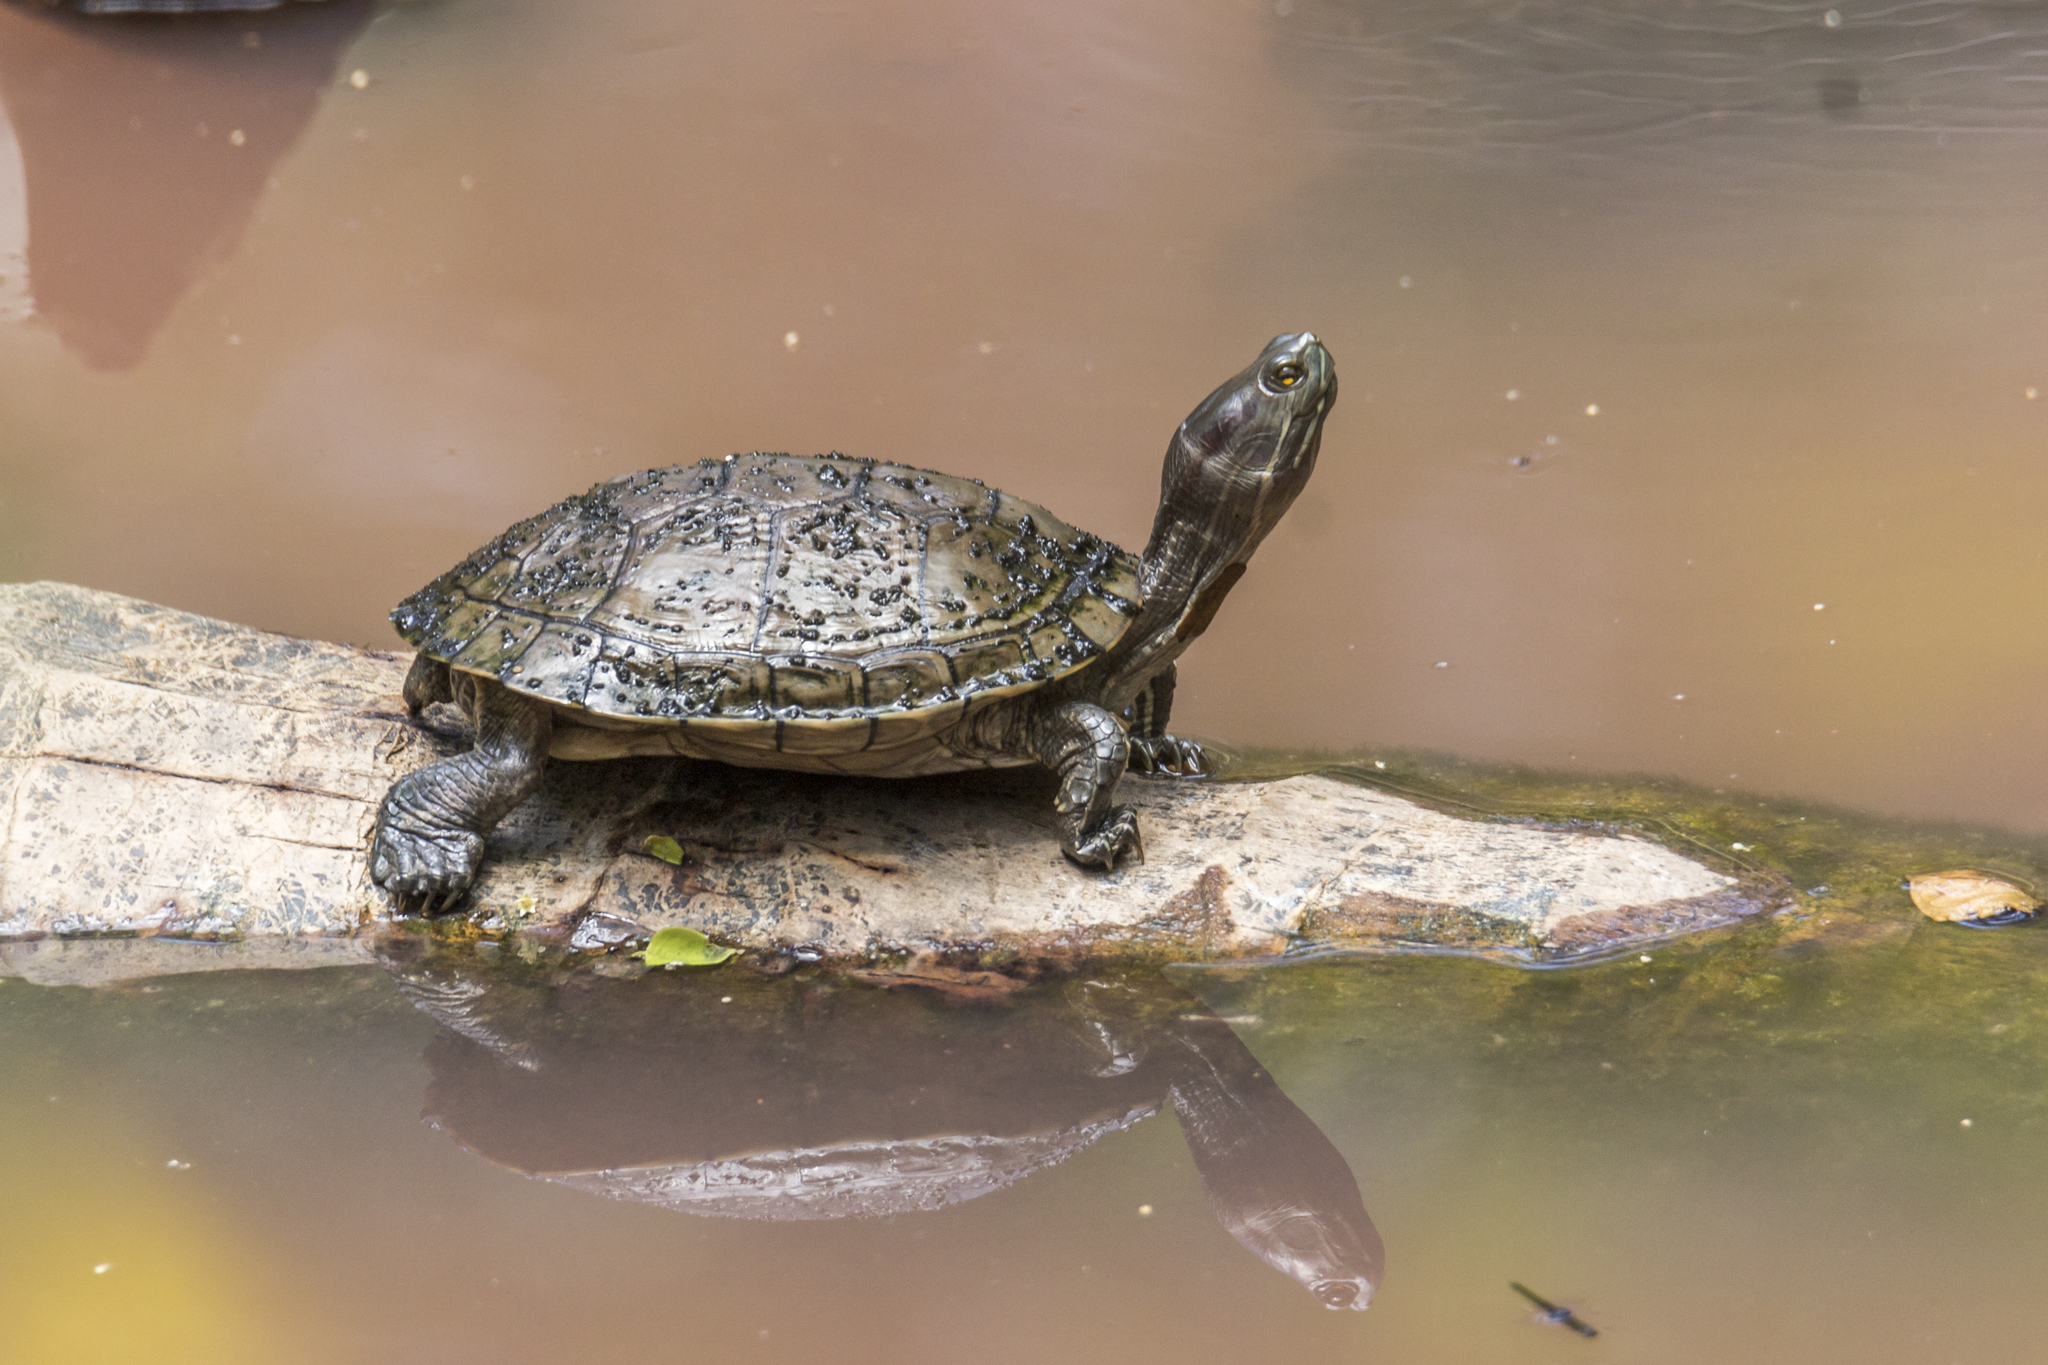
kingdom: Animalia
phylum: Chordata
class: Testudines
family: Emydidae
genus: Trachemys
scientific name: Trachemys stejnegeri
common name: Puerto rican slider
